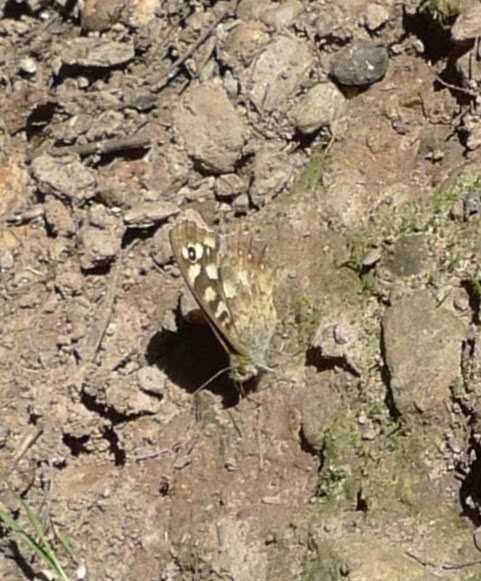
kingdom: Animalia
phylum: Arthropoda
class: Insecta
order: Lepidoptera
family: Nymphalidae
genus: Pararge
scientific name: Pararge aegeria
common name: Speckled wood
